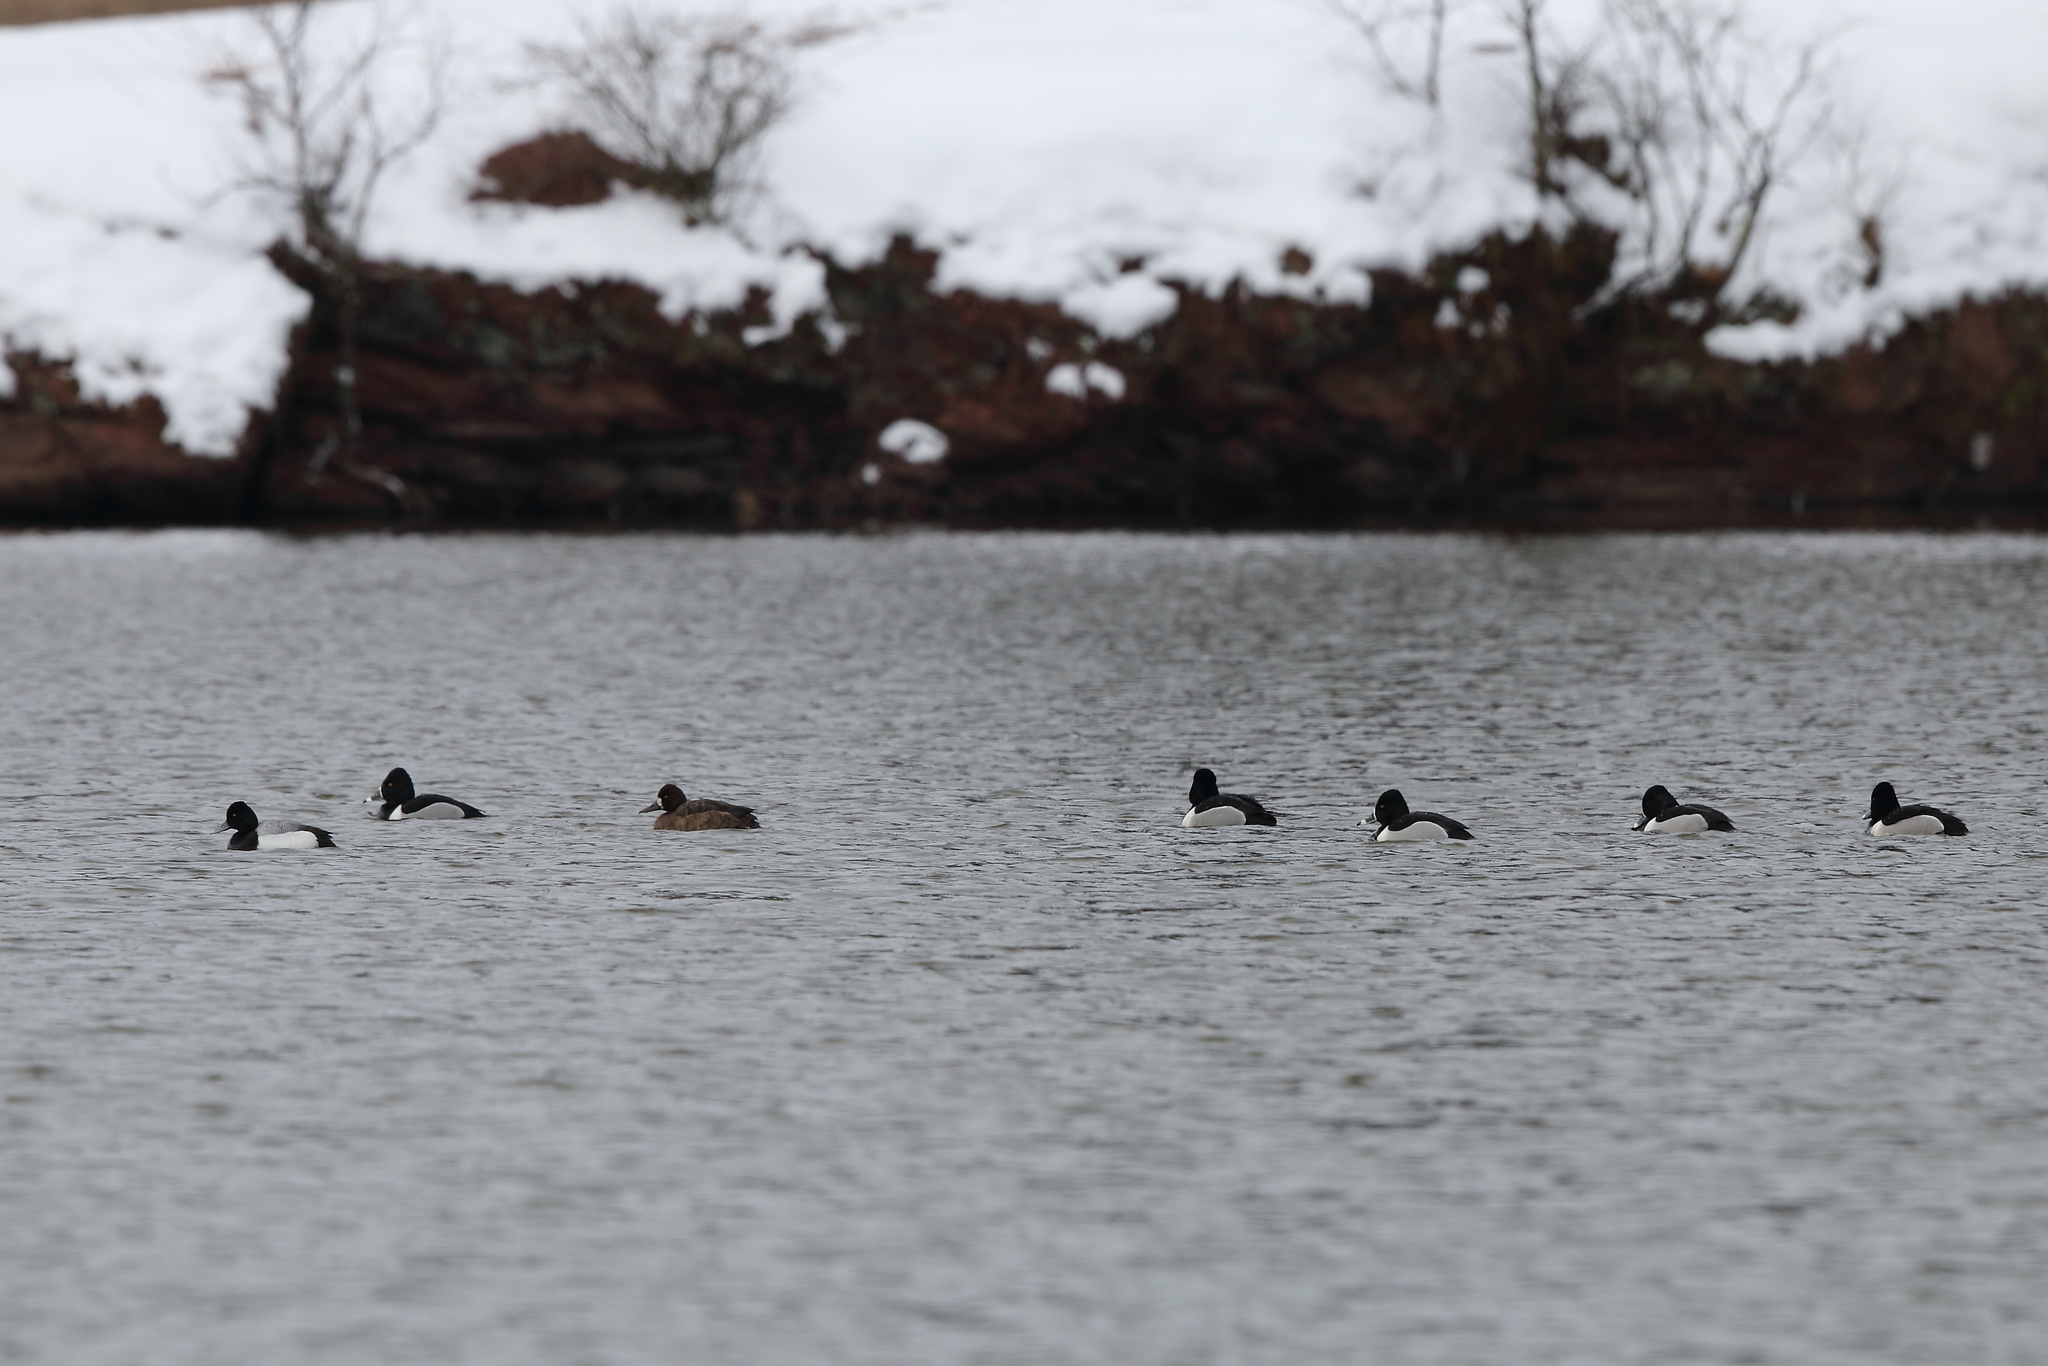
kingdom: Animalia
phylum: Chordata
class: Aves
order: Anseriformes
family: Anatidae
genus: Aythya
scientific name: Aythya collaris
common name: Ring-necked duck
